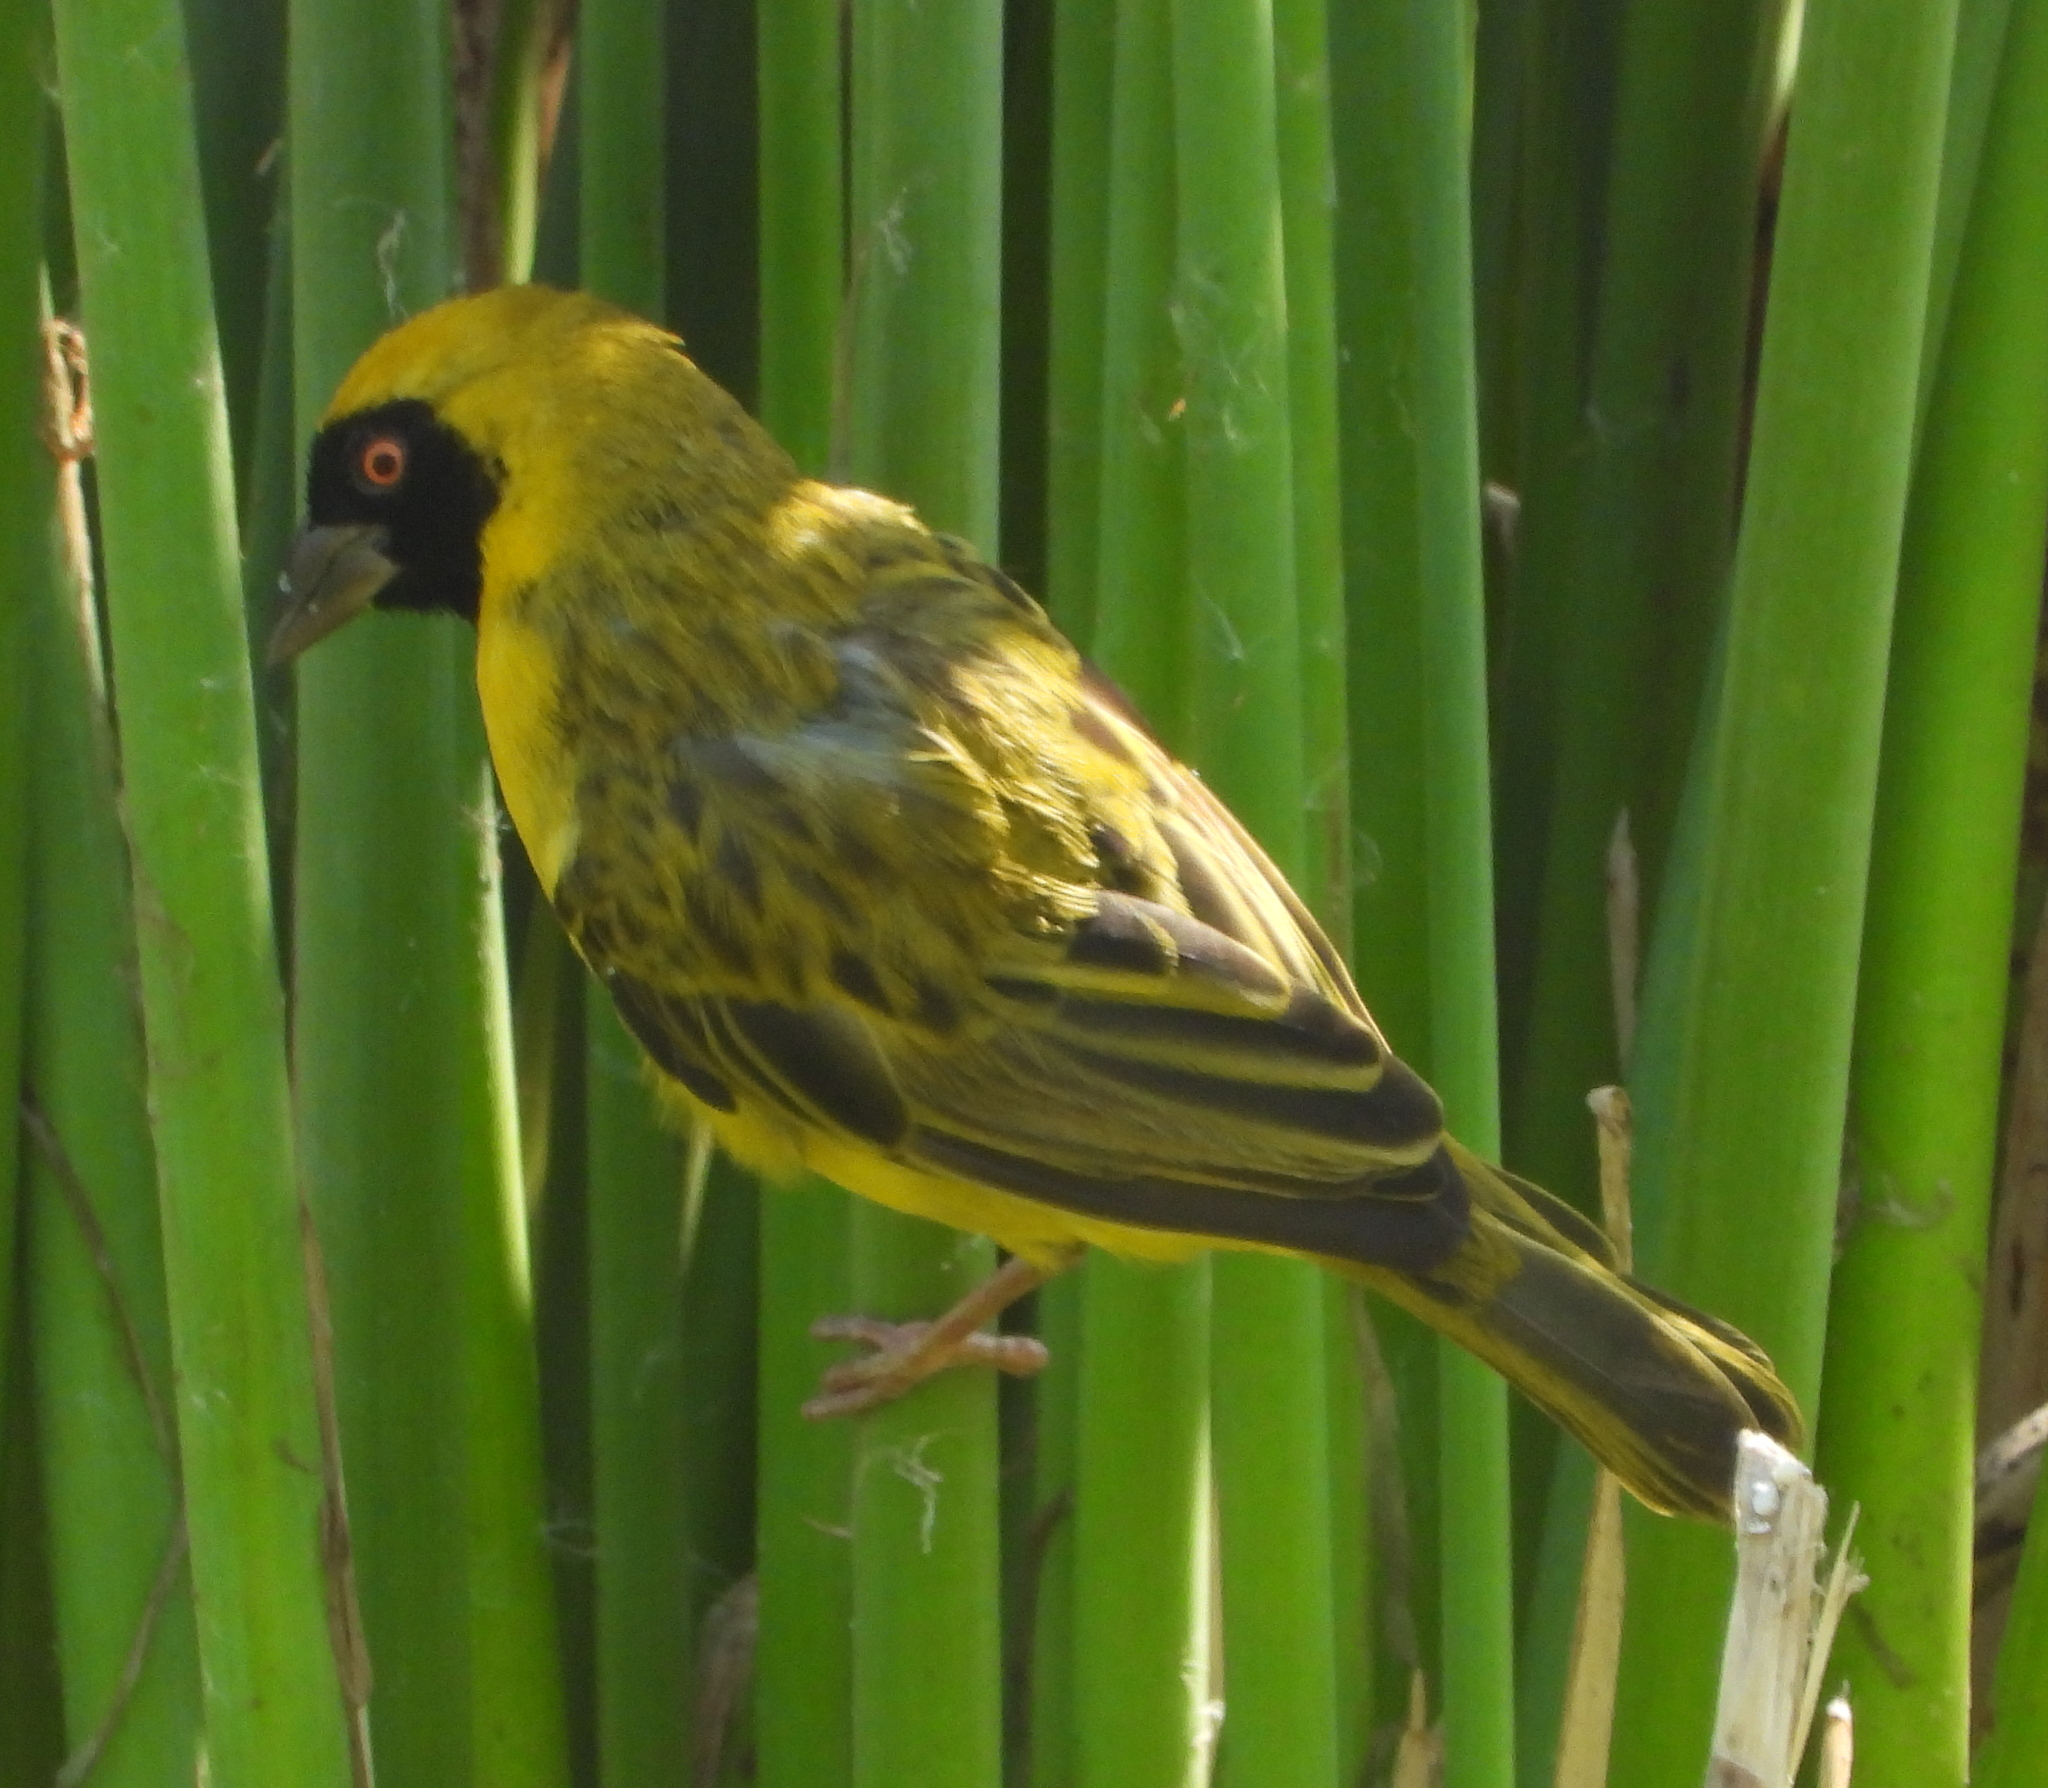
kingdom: Animalia
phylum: Chordata
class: Aves
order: Passeriformes
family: Ploceidae
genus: Ploceus
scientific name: Ploceus velatus
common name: Southern masked weaver
